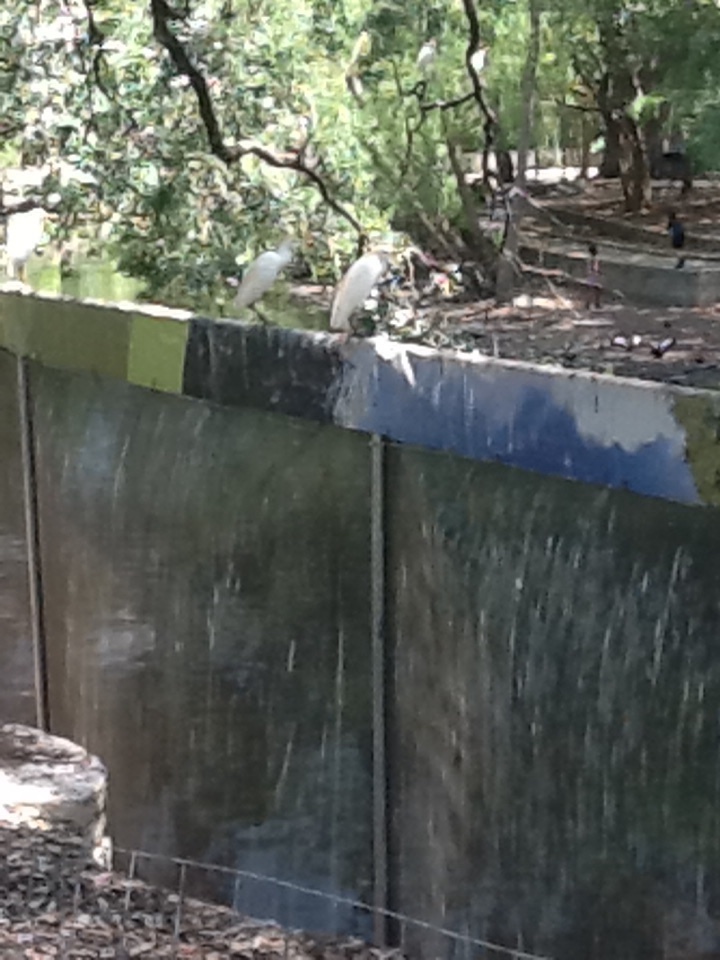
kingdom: Animalia
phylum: Chordata
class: Aves
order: Pelecaniformes
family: Ardeidae
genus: Bubulcus
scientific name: Bubulcus ibis
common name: Cattle egret
